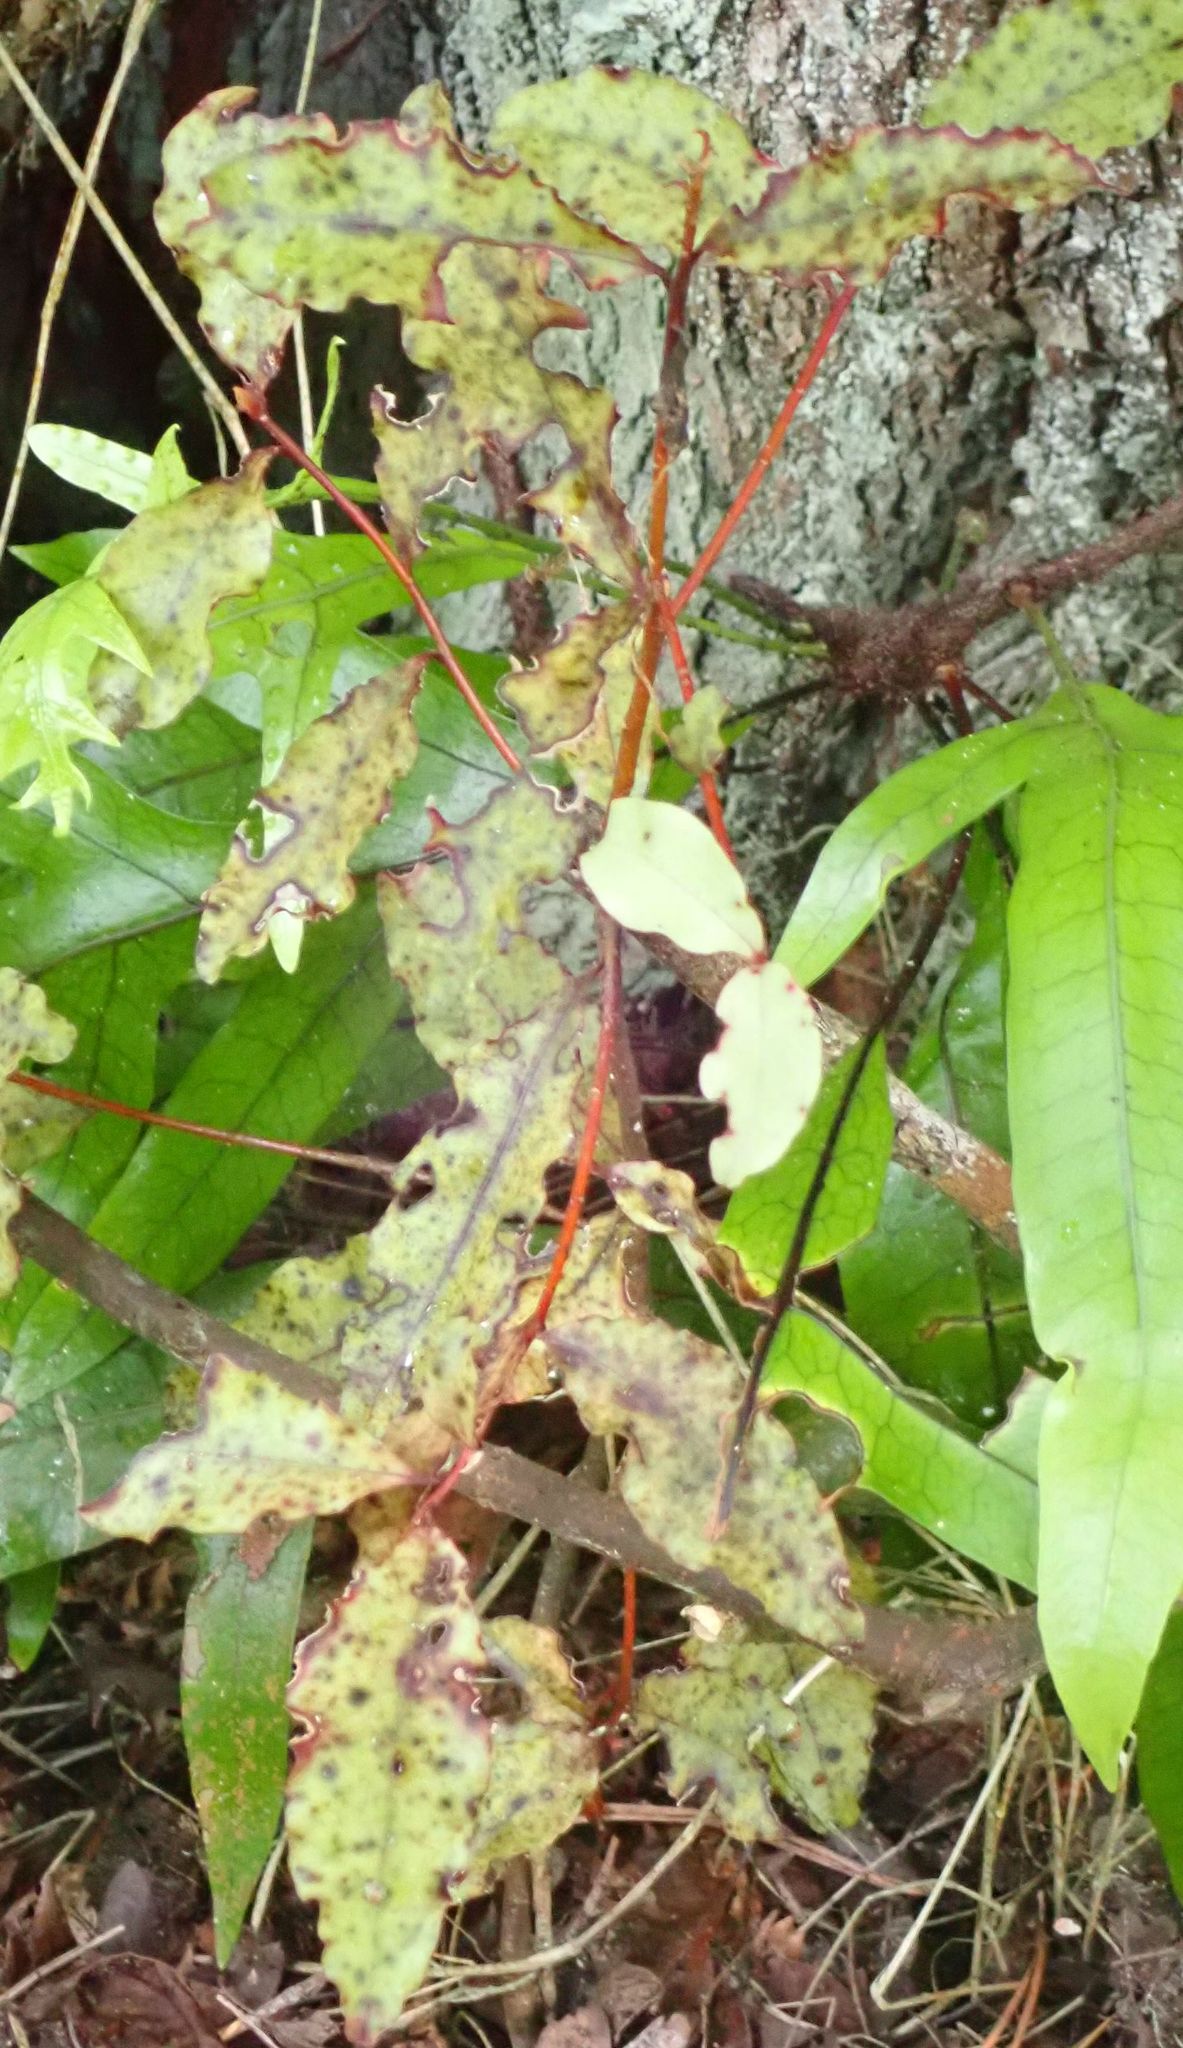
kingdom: Plantae
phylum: Tracheophyta
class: Magnoliopsida
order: Ericales
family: Primulaceae
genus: Myrsine
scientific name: Myrsine australis
